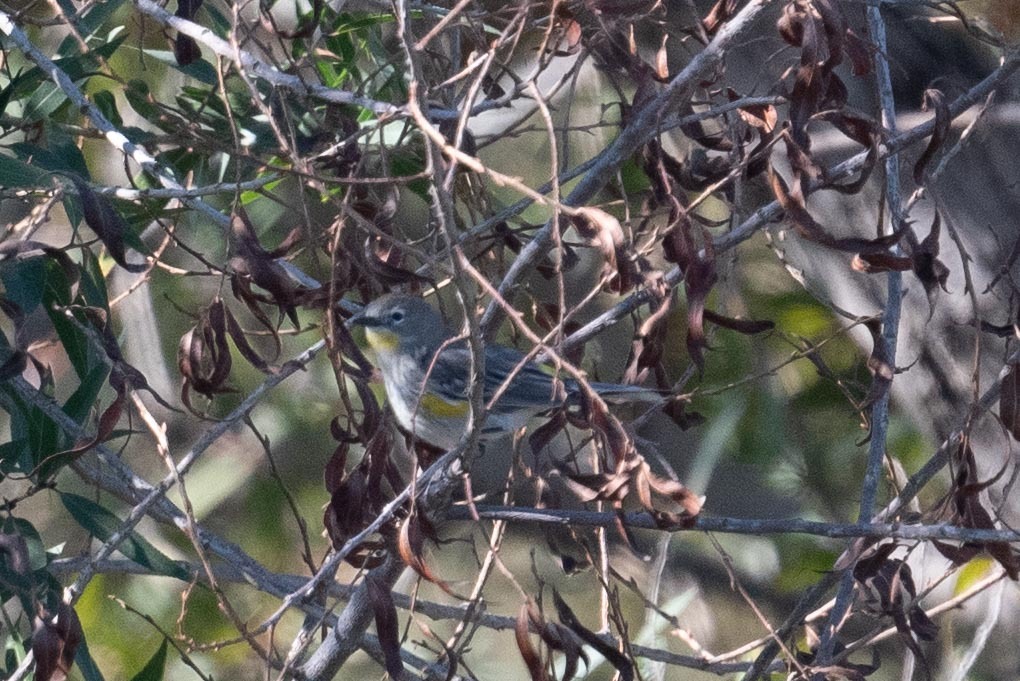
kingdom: Animalia
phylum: Chordata
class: Aves
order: Passeriformes
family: Parulidae
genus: Setophaga
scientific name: Setophaga coronata
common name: Myrtle warbler
